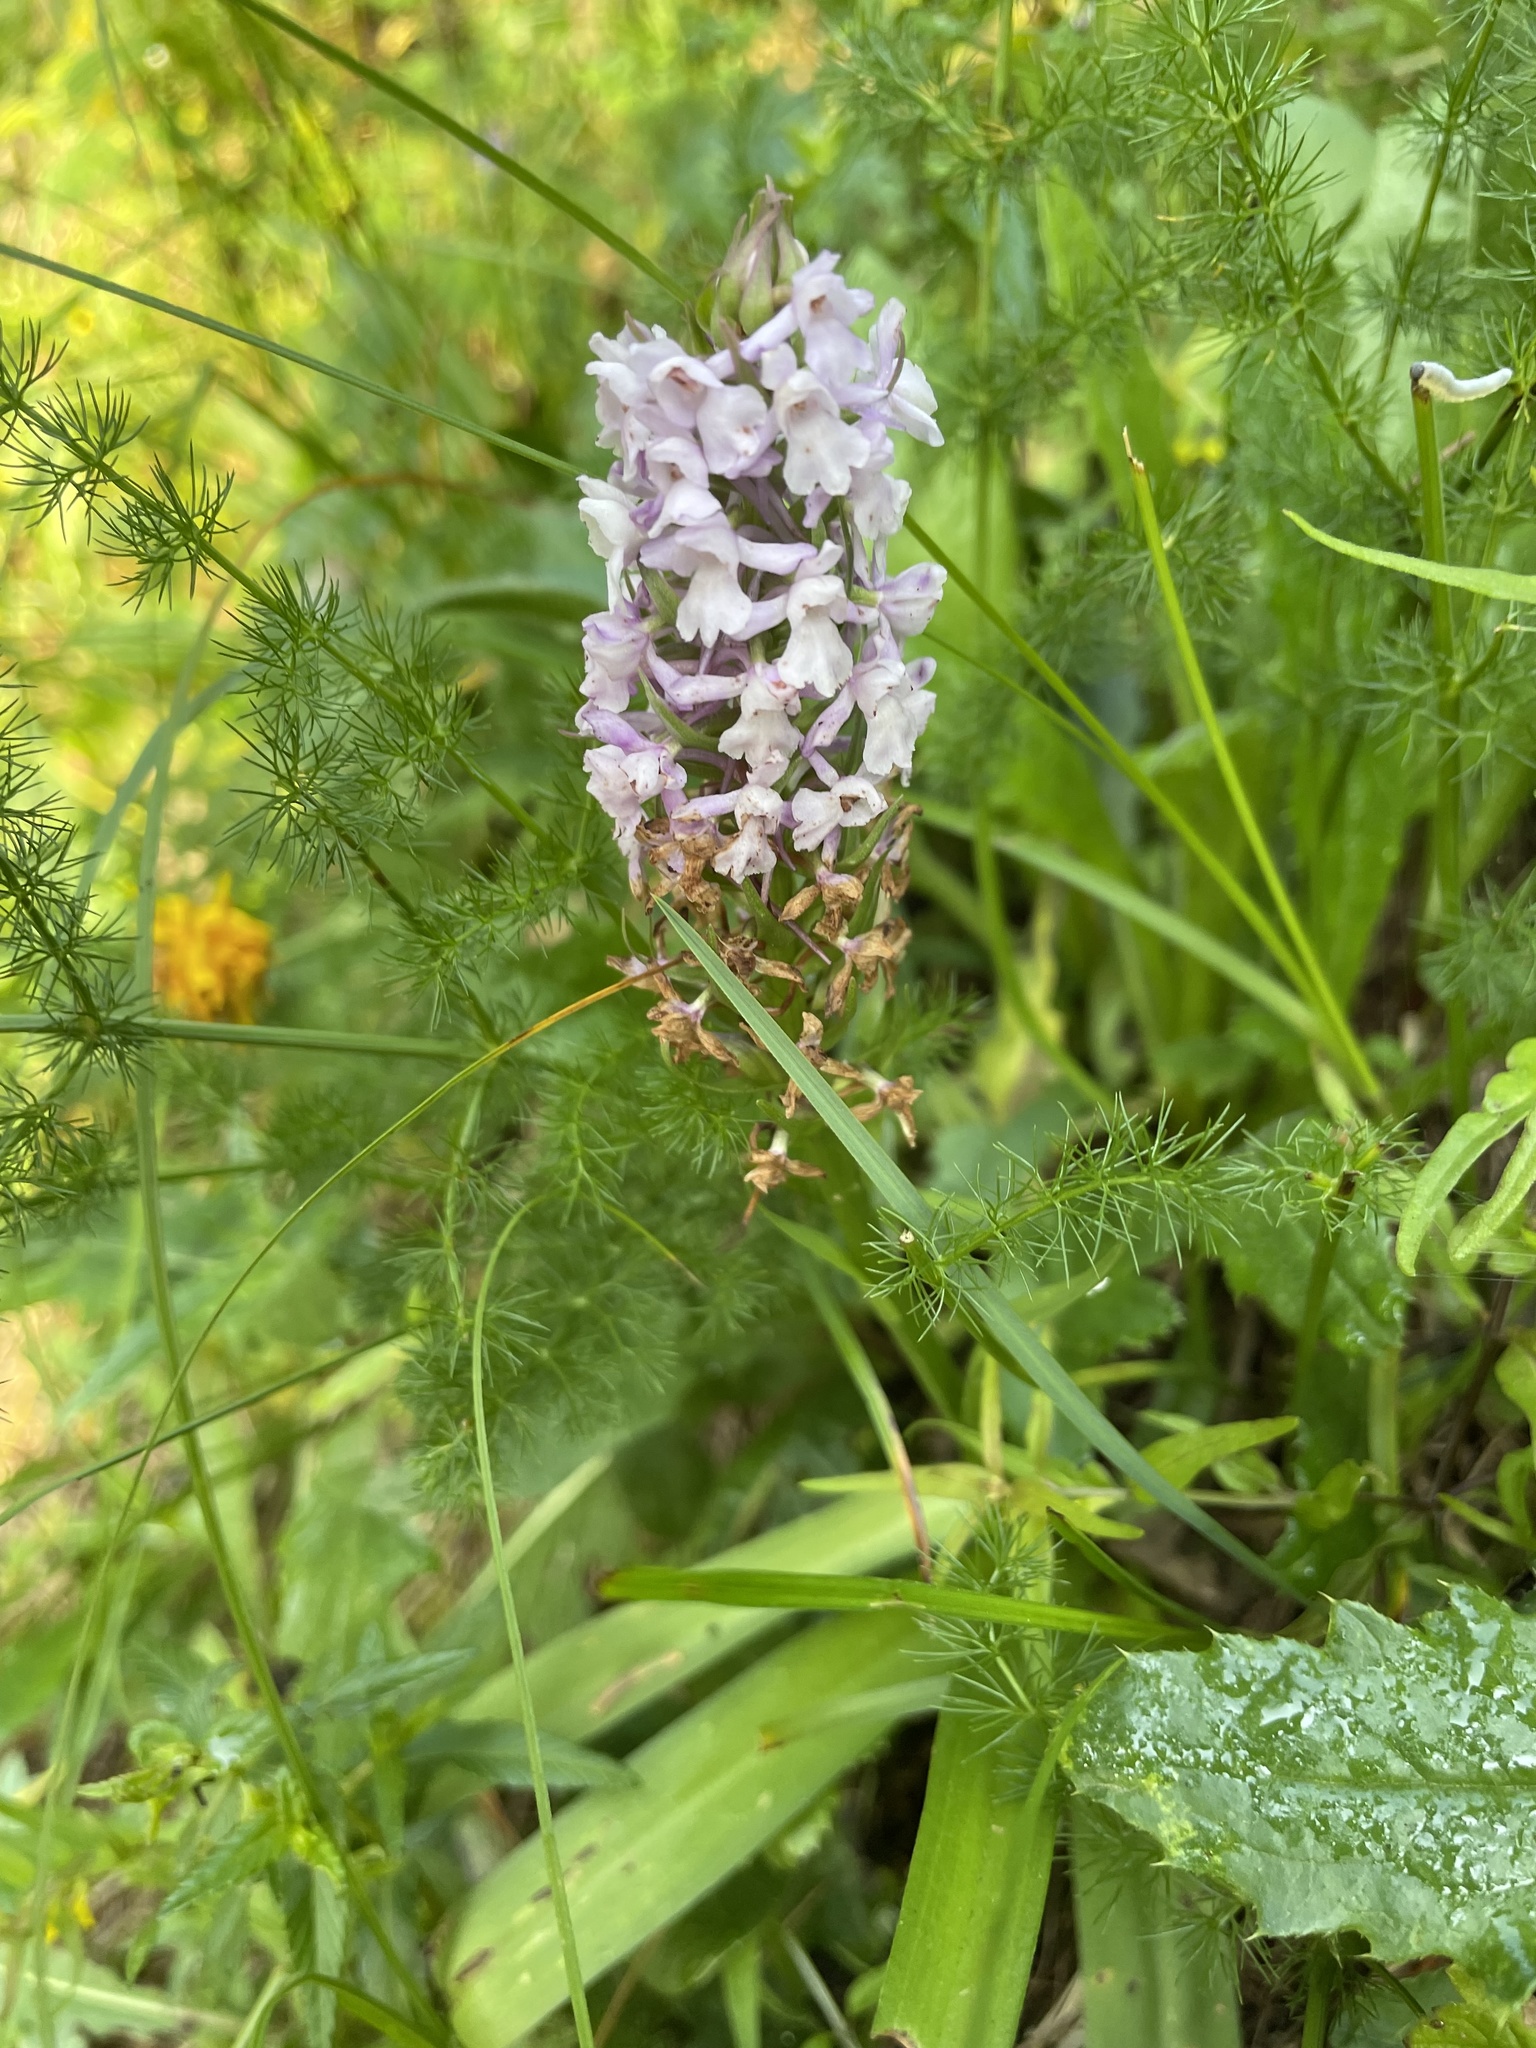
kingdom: Plantae
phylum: Tracheophyta
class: Liliopsida
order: Asparagales
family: Orchidaceae
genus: Gymnadenia
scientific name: Gymnadenia conopsea
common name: Fragrant orchid
